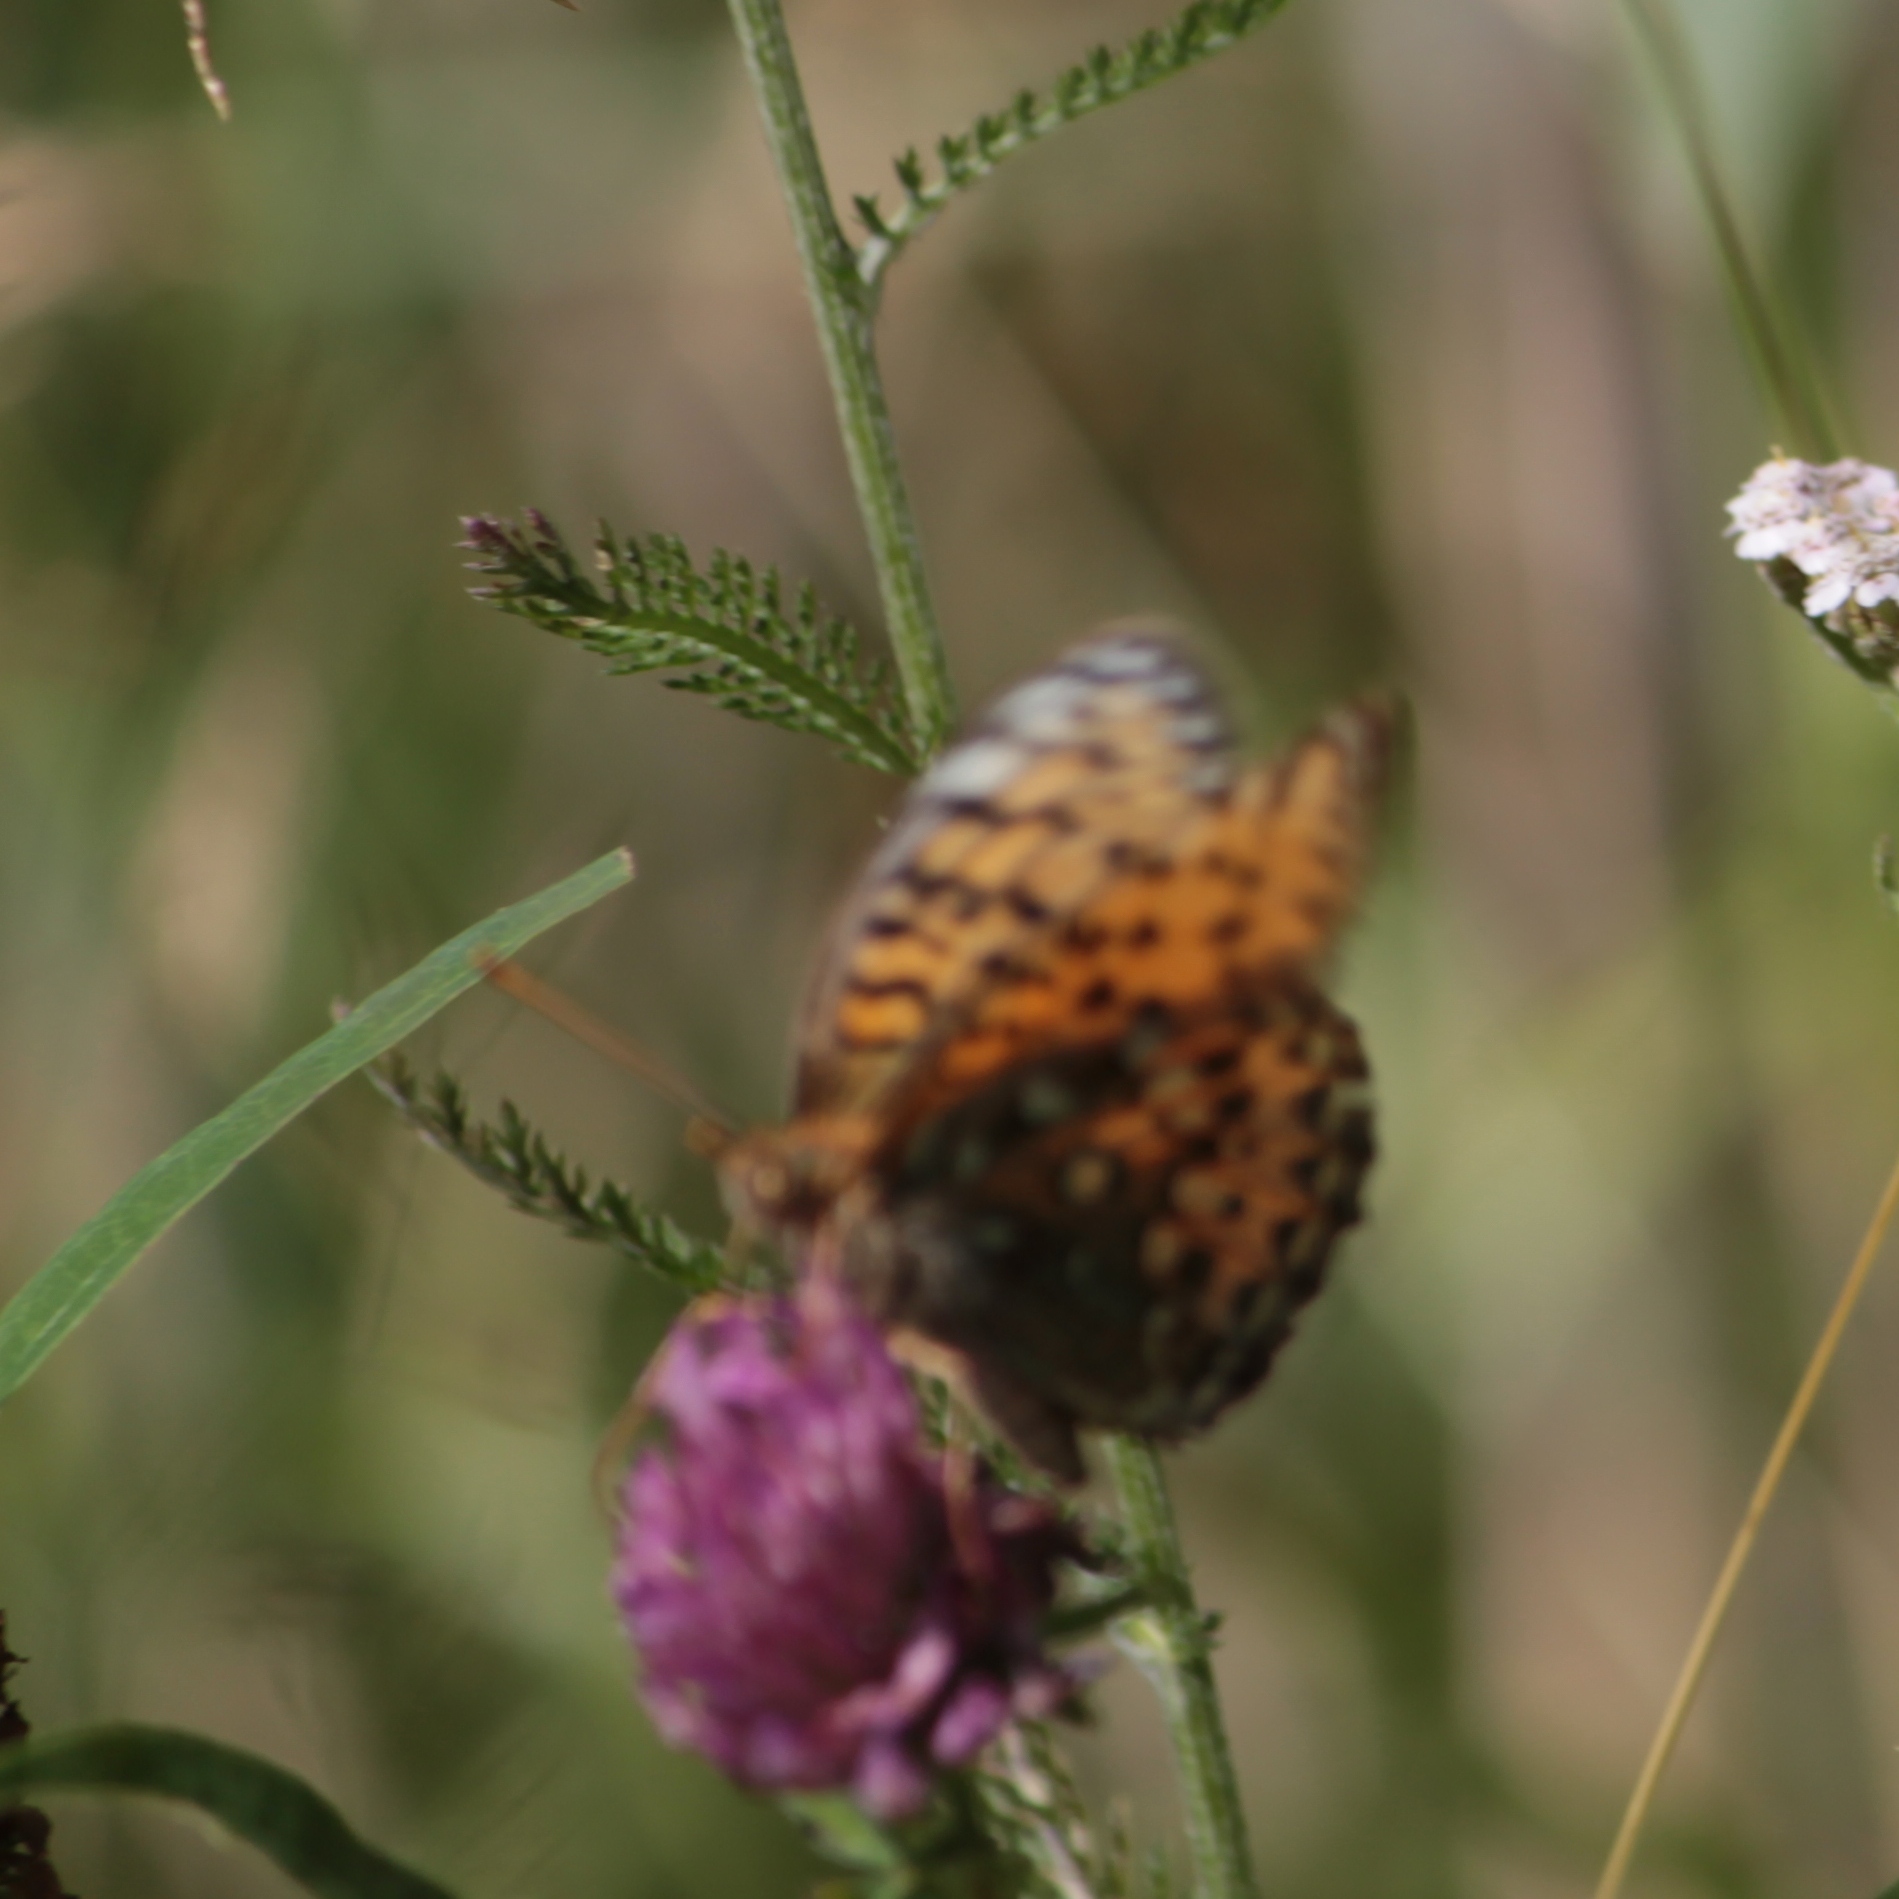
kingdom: Animalia
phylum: Arthropoda
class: Insecta
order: Lepidoptera
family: Nymphalidae
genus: Speyeria
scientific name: Speyeria aglaja
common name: Dark green fritillary
